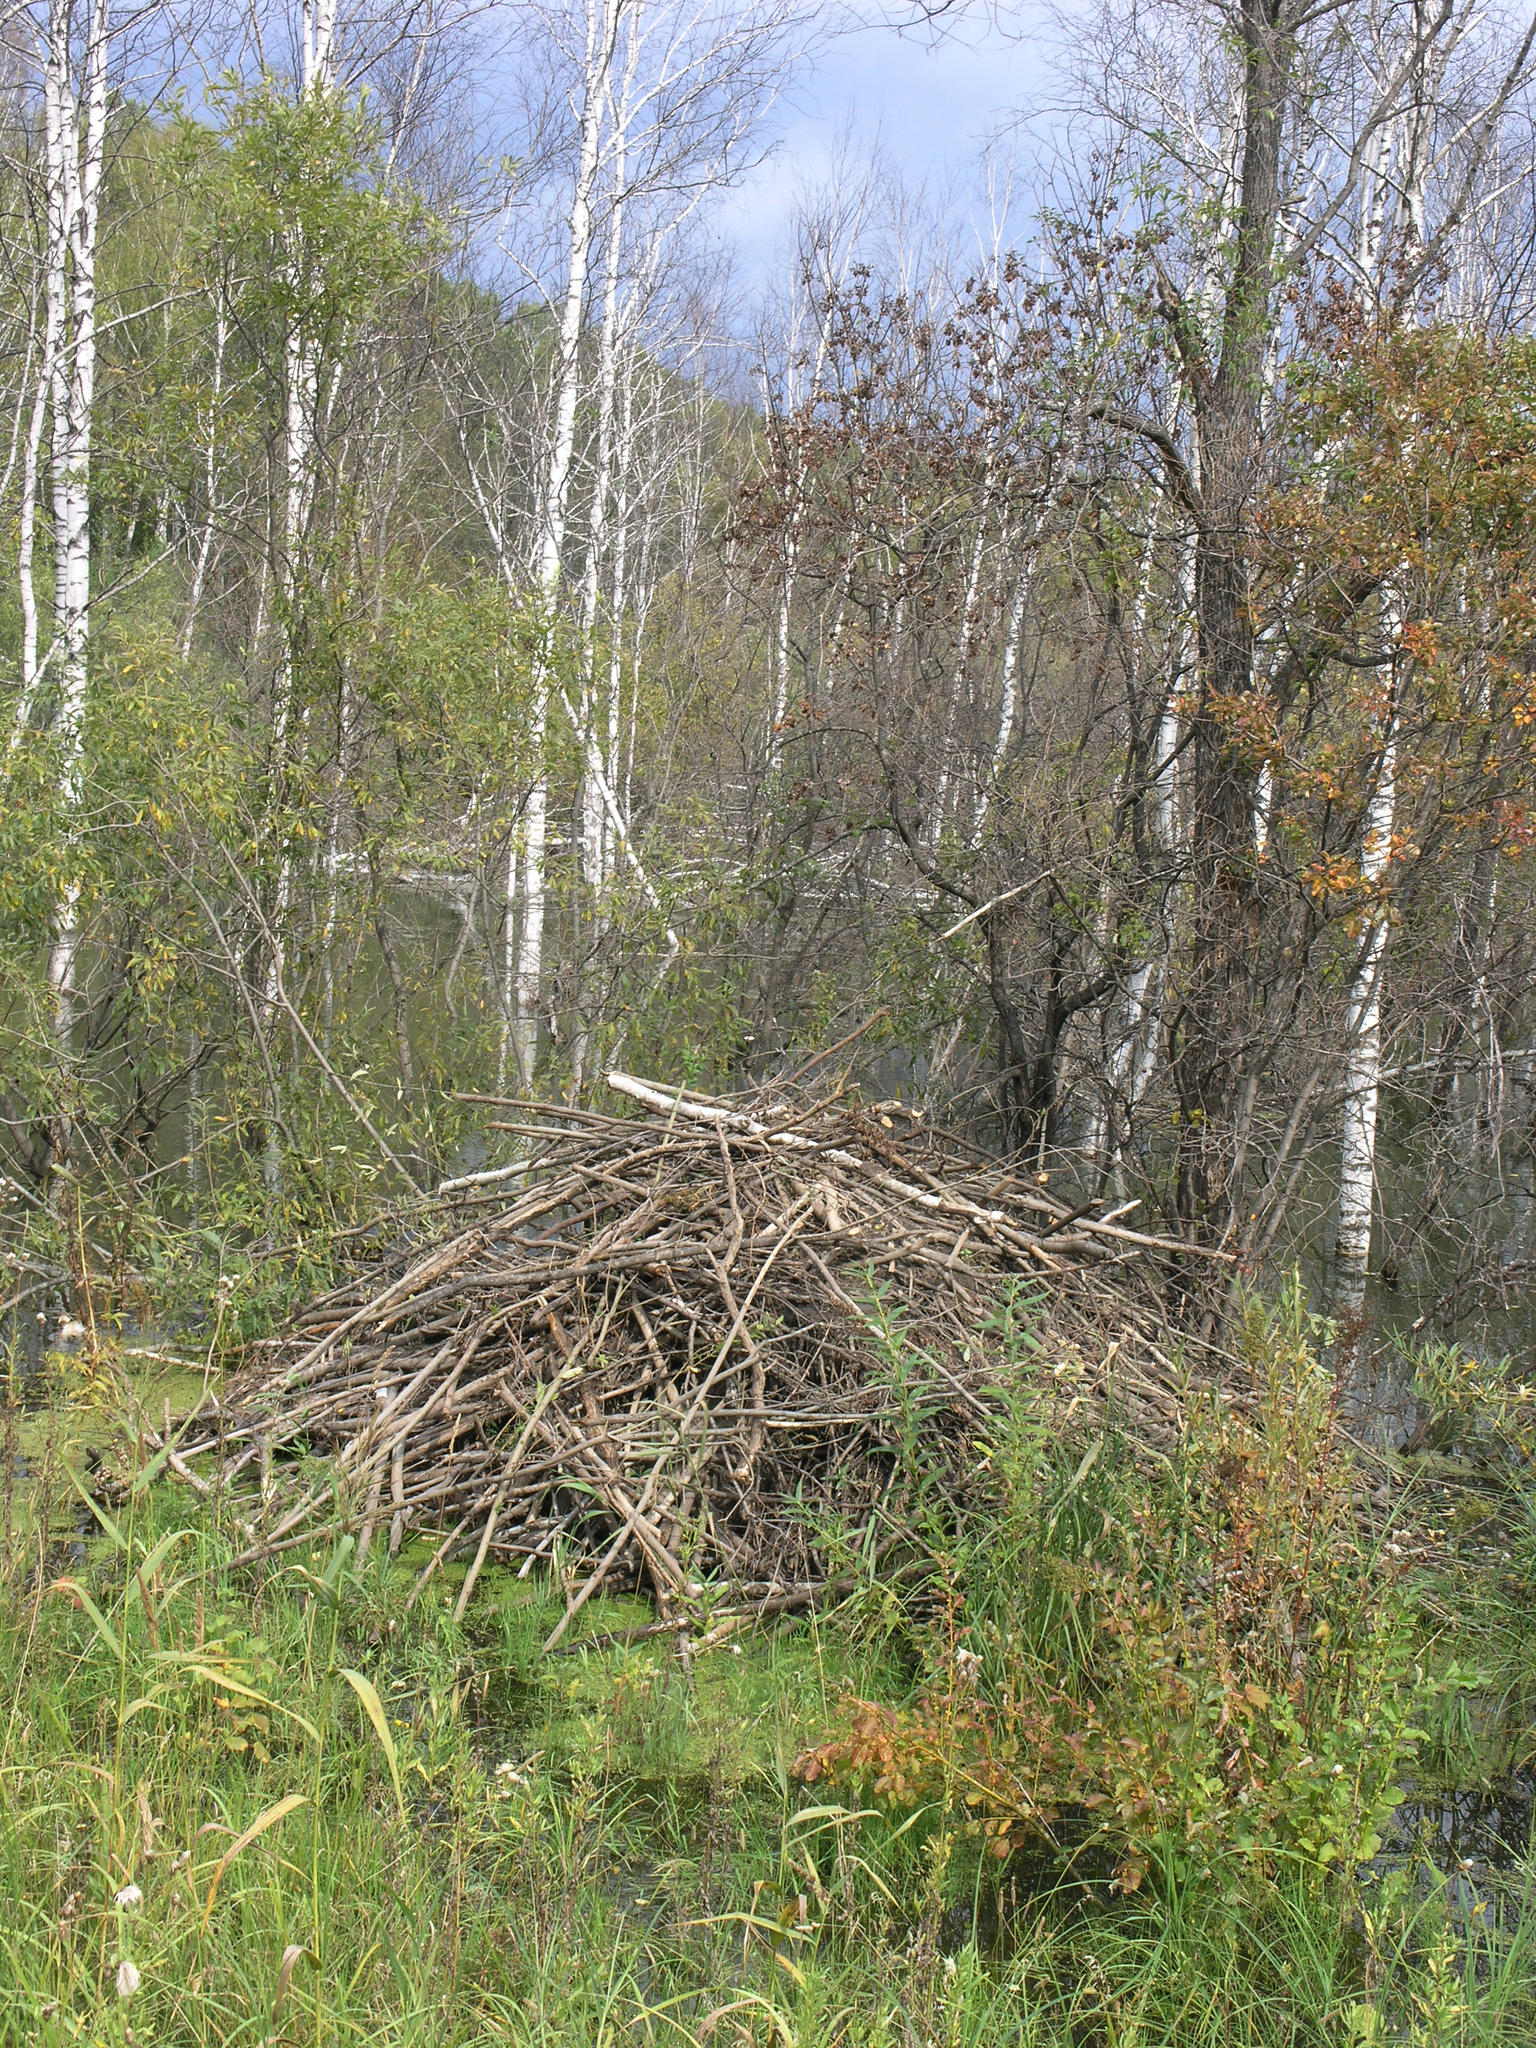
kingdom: Animalia
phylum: Chordata
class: Mammalia
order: Rodentia
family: Castoridae
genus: Castor
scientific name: Castor fiber
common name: Eurasian beaver
